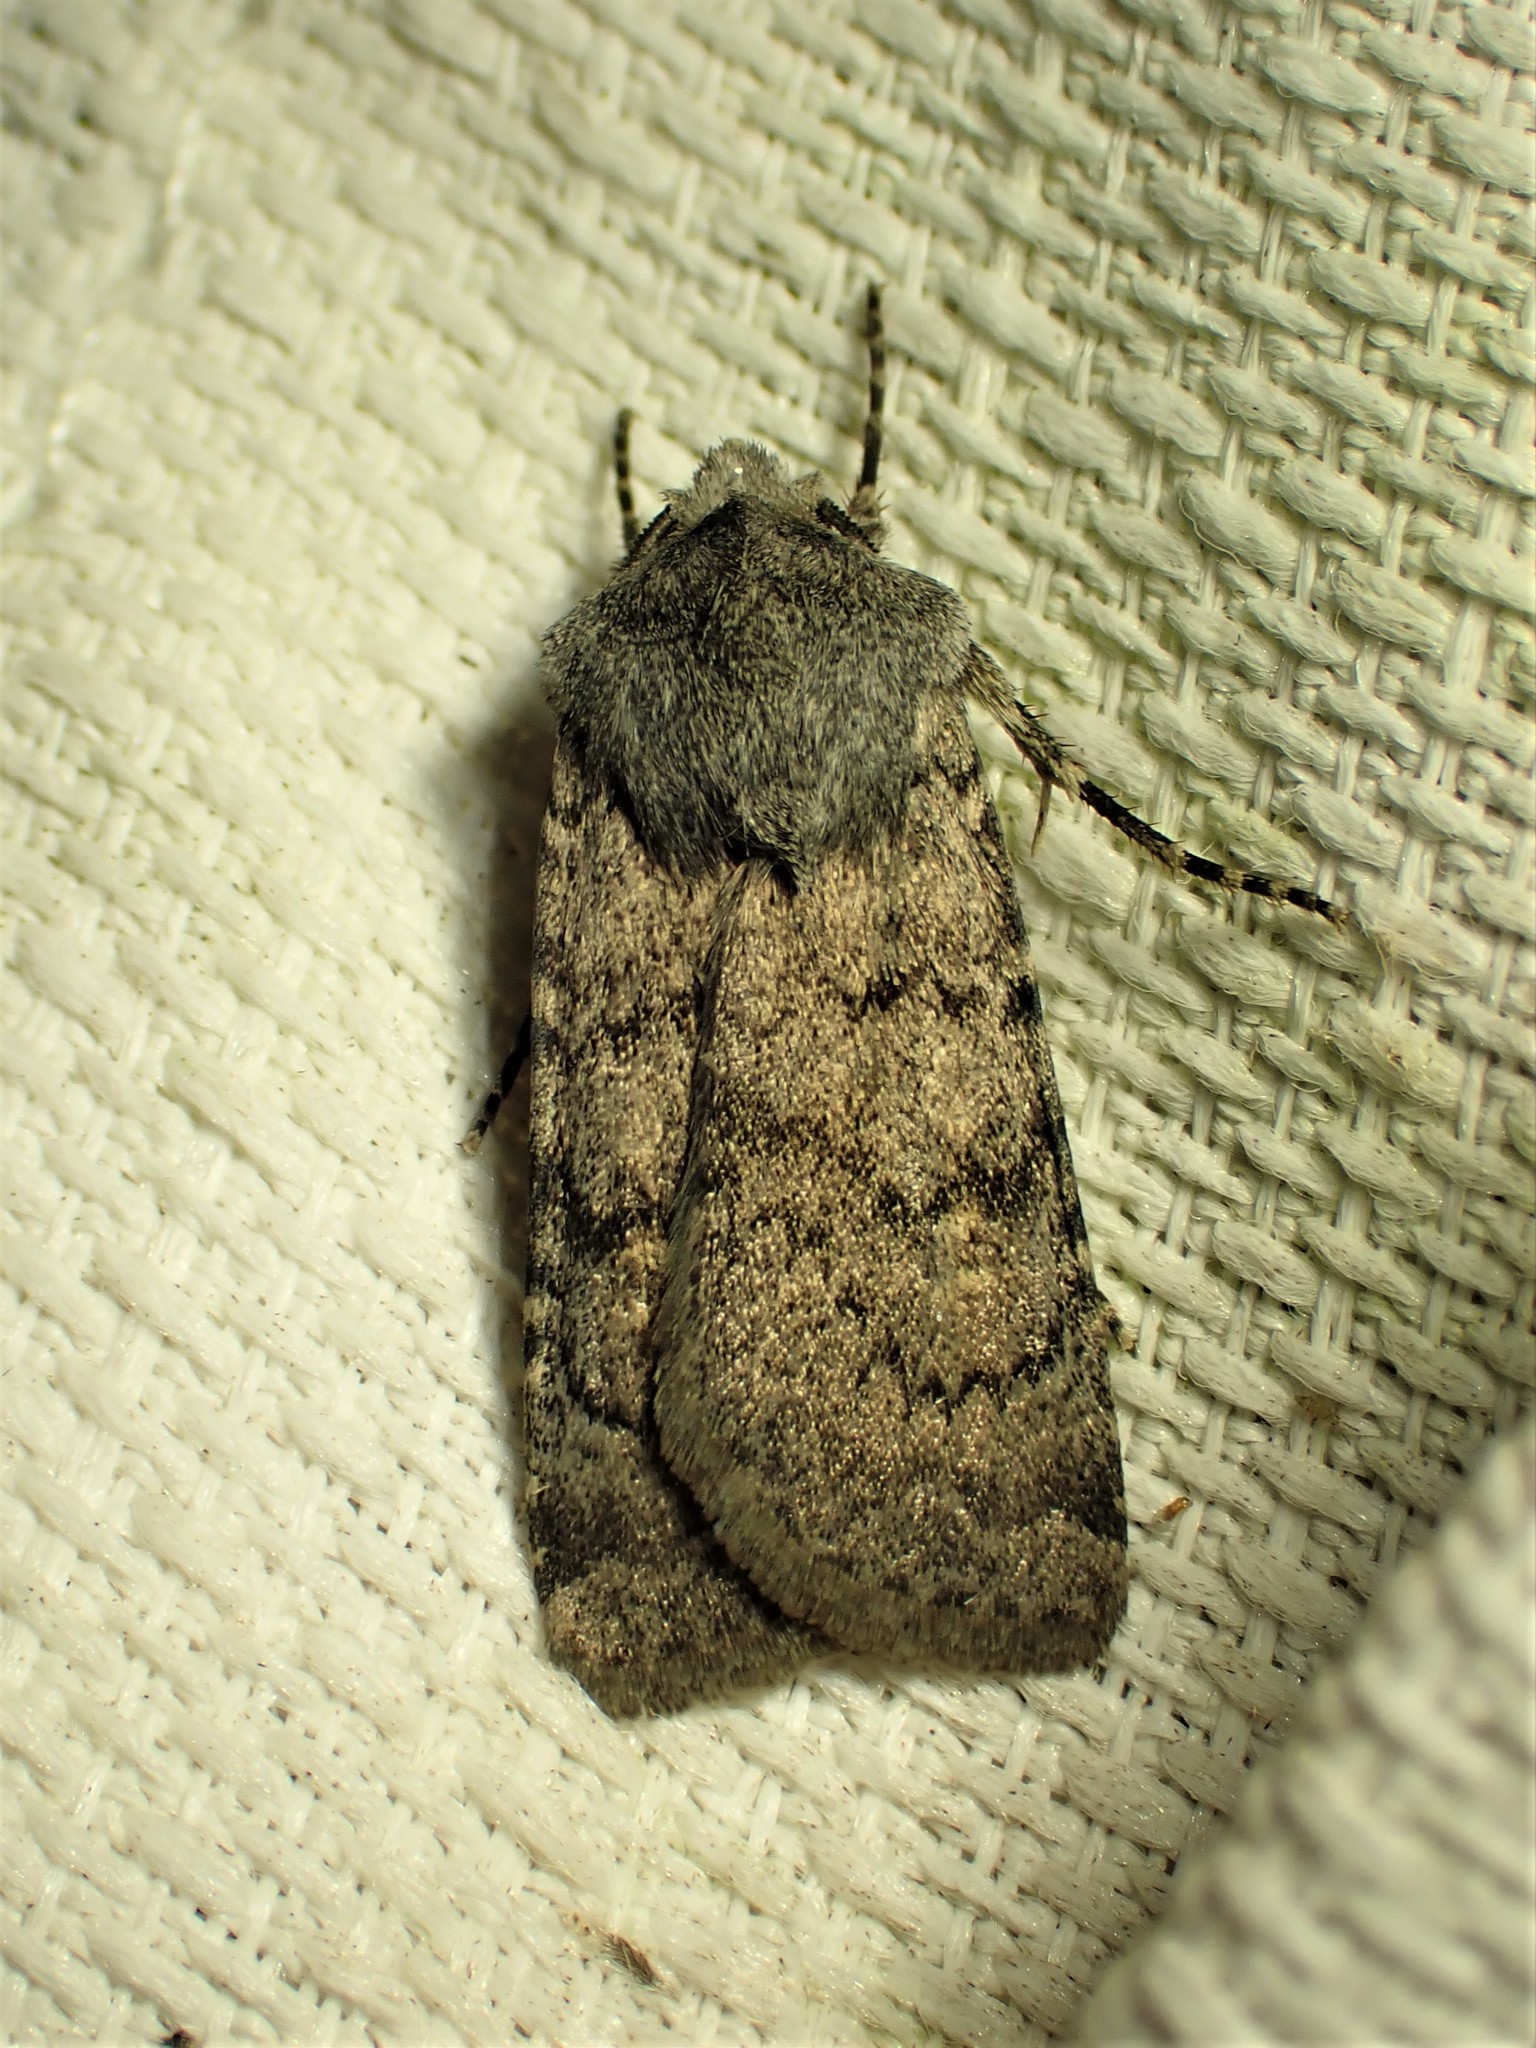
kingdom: Animalia
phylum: Arthropoda
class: Insecta
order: Lepidoptera
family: Noctuidae
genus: Euxoa
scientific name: Euxoa comosa
